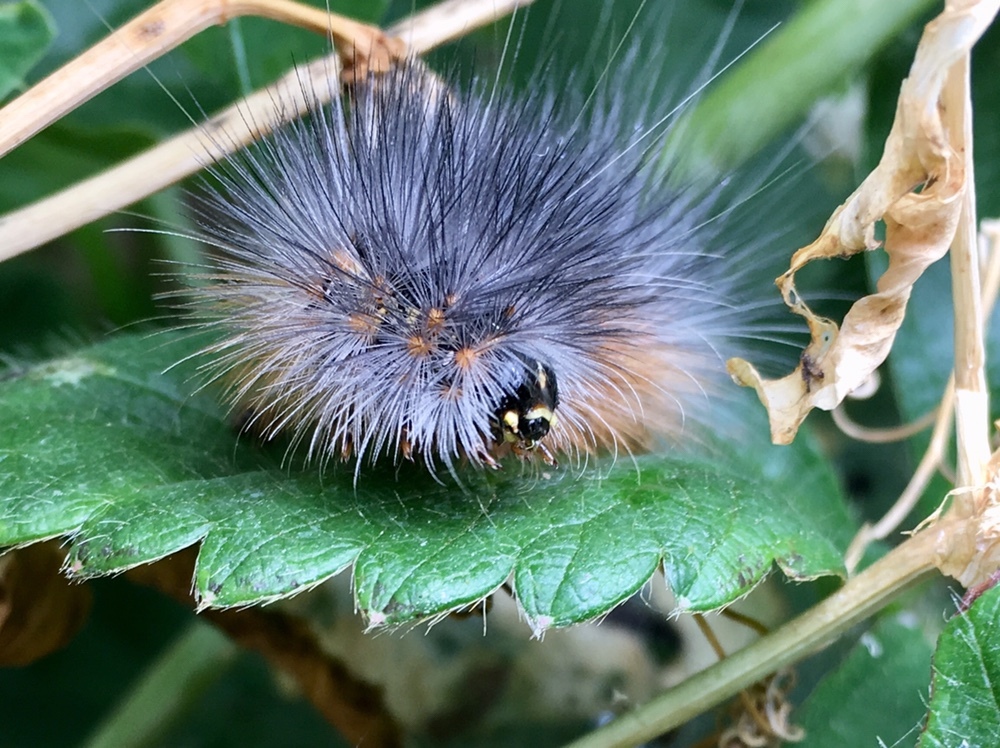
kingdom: Animalia
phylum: Arthropoda
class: Insecta
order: Lepidoptera
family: Erebidae
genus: Estigmene
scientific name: Estigmene acrea
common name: Salt marsh moth
